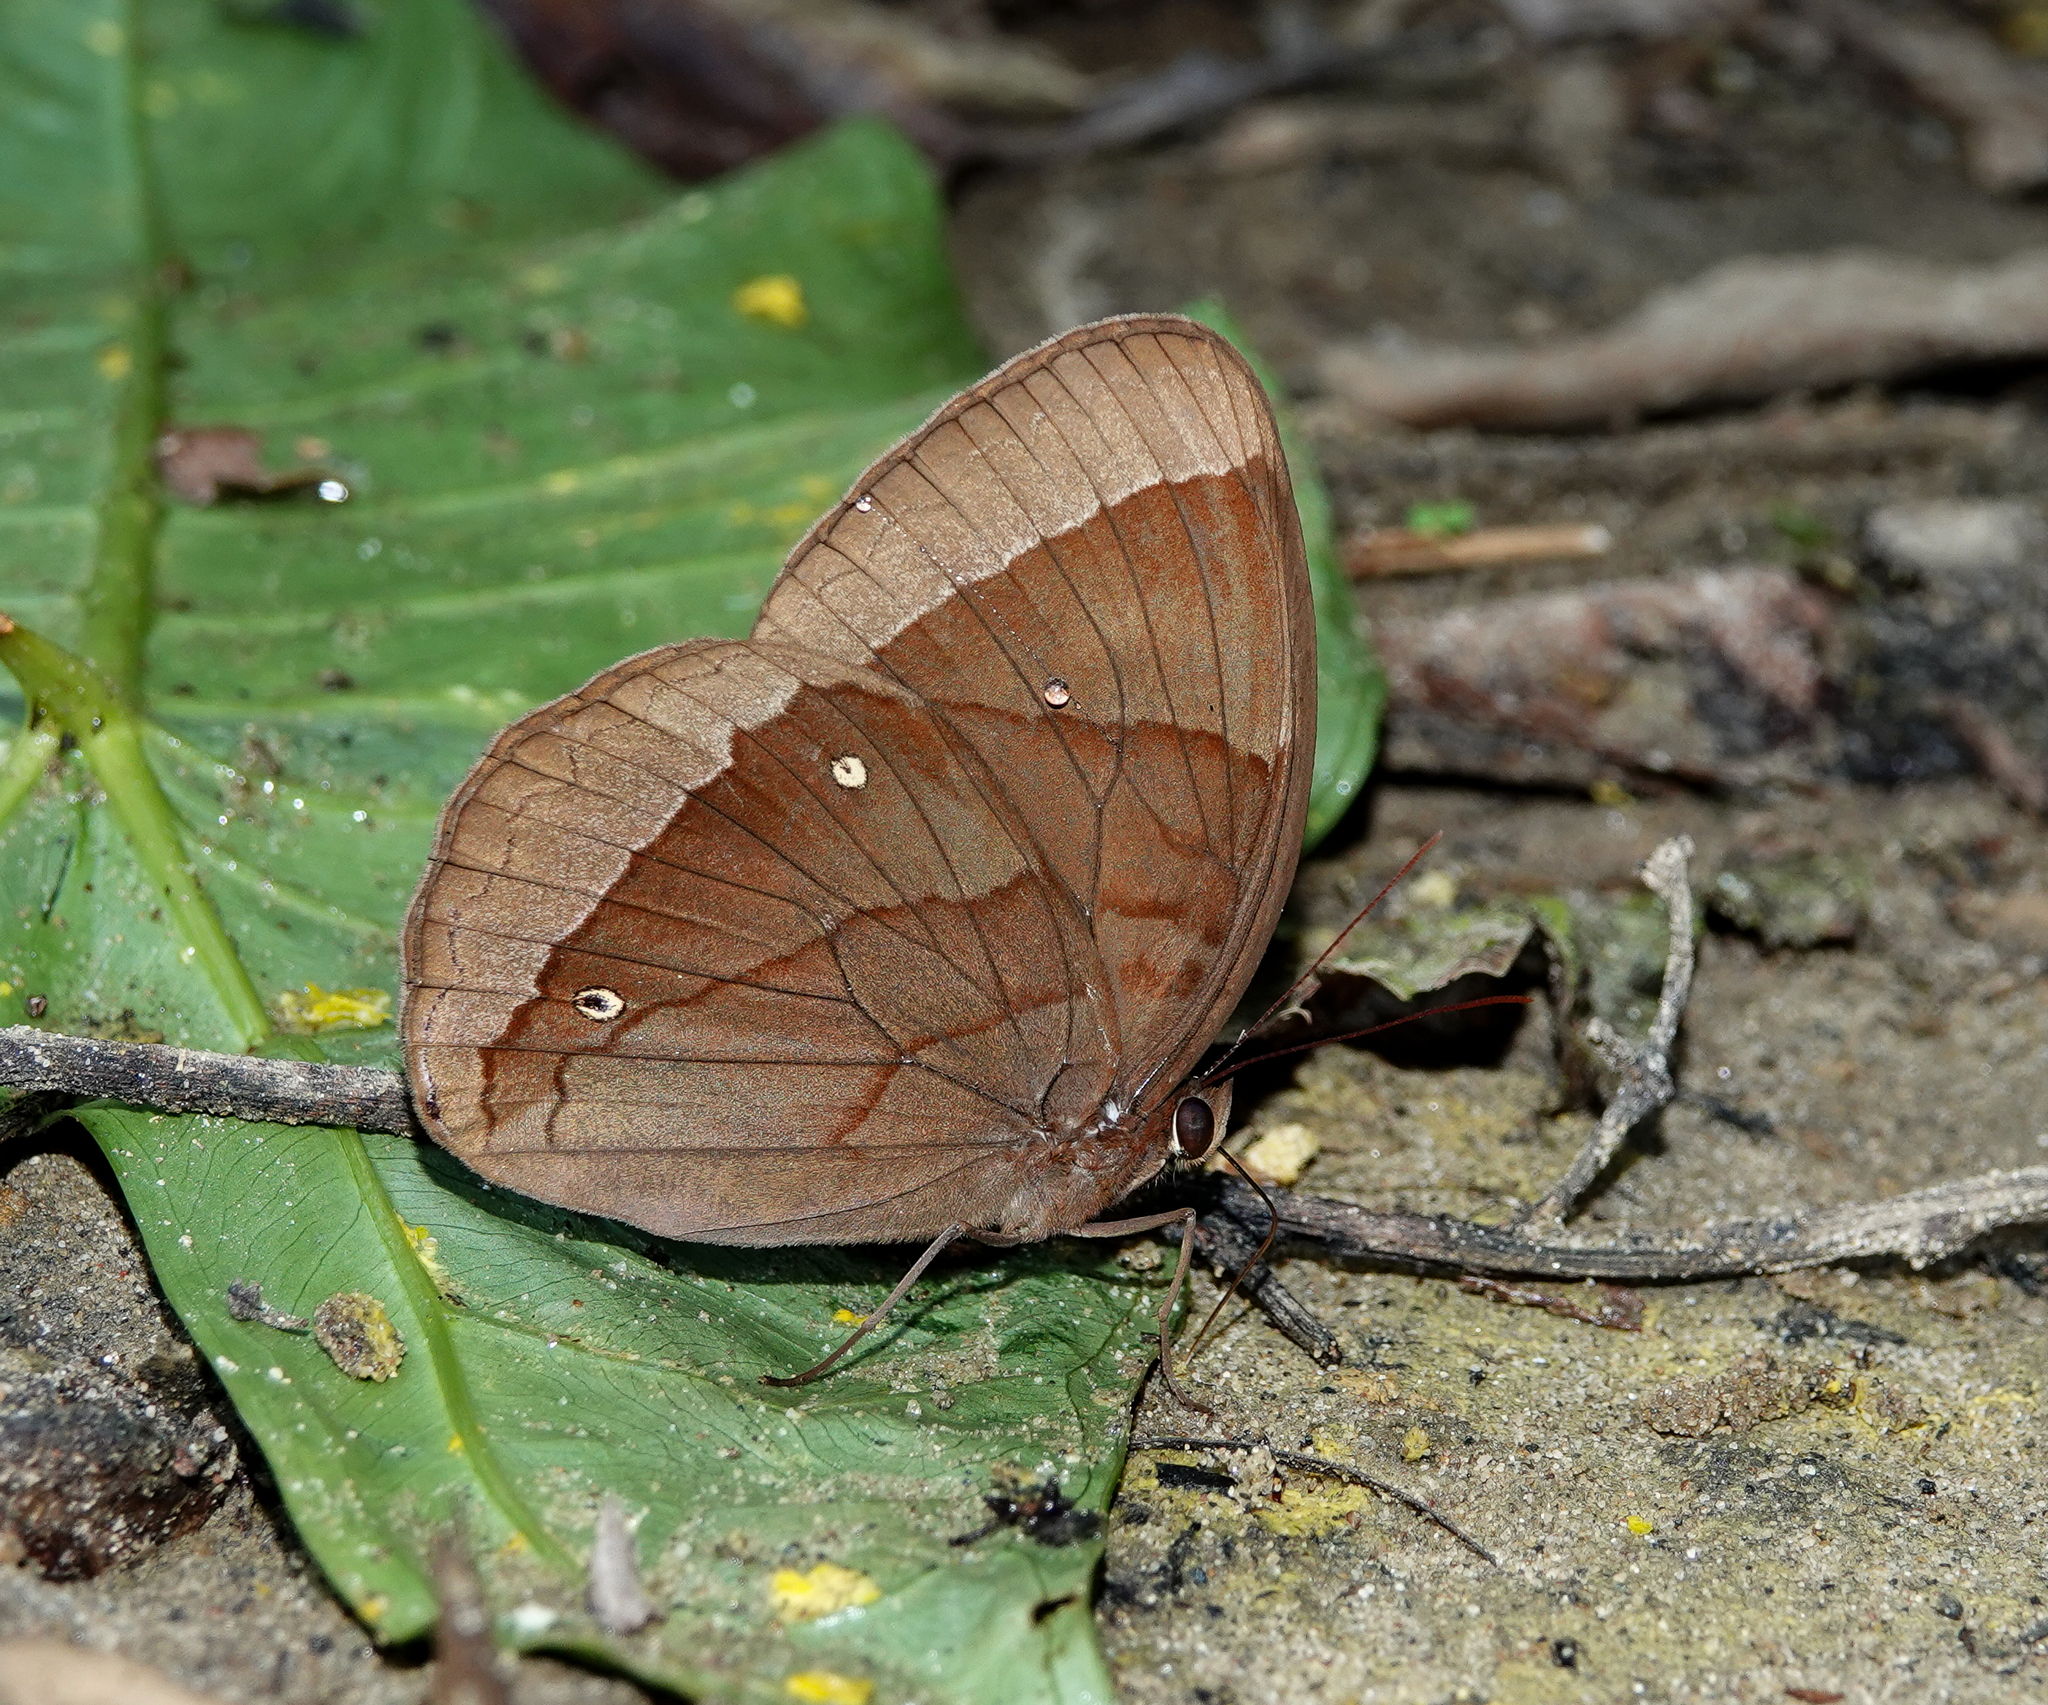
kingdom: Animalia
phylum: Arthropoda
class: Insecta
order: Lepidoptera
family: Nymphalidae
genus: Thaumantis
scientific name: Thaumantis diores
